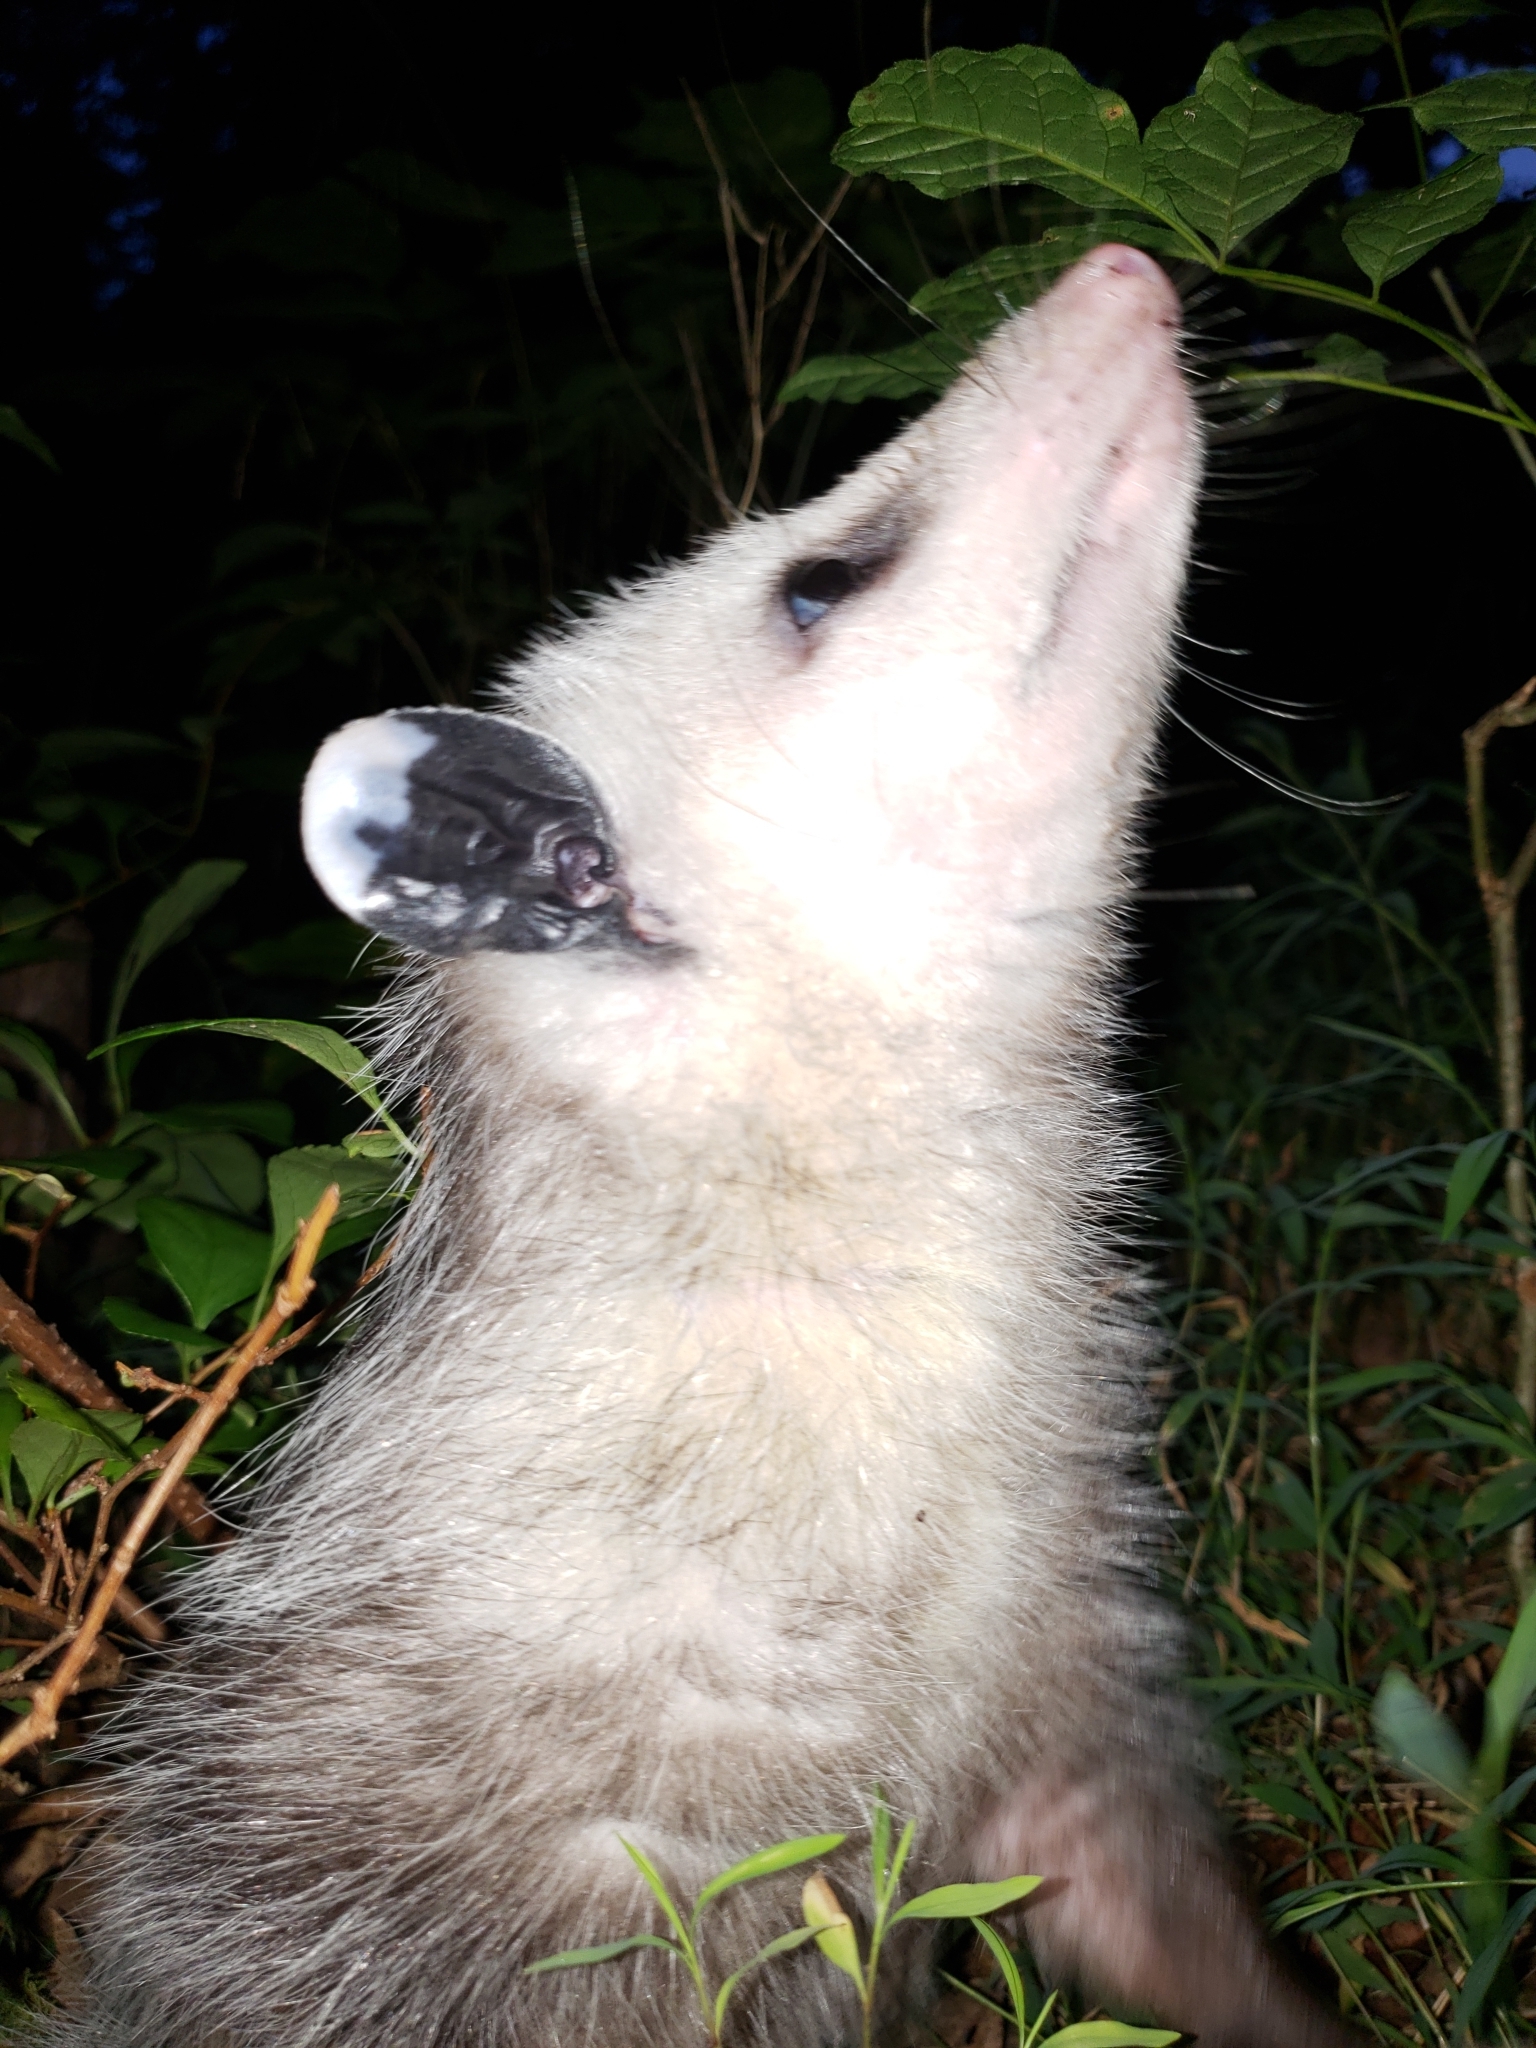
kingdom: Animalia
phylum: Chordata
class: Mammalia
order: Didelphimorphia
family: Didelphidae
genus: Didelphis
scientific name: Didelphis virginiana
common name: Virginia opossum
